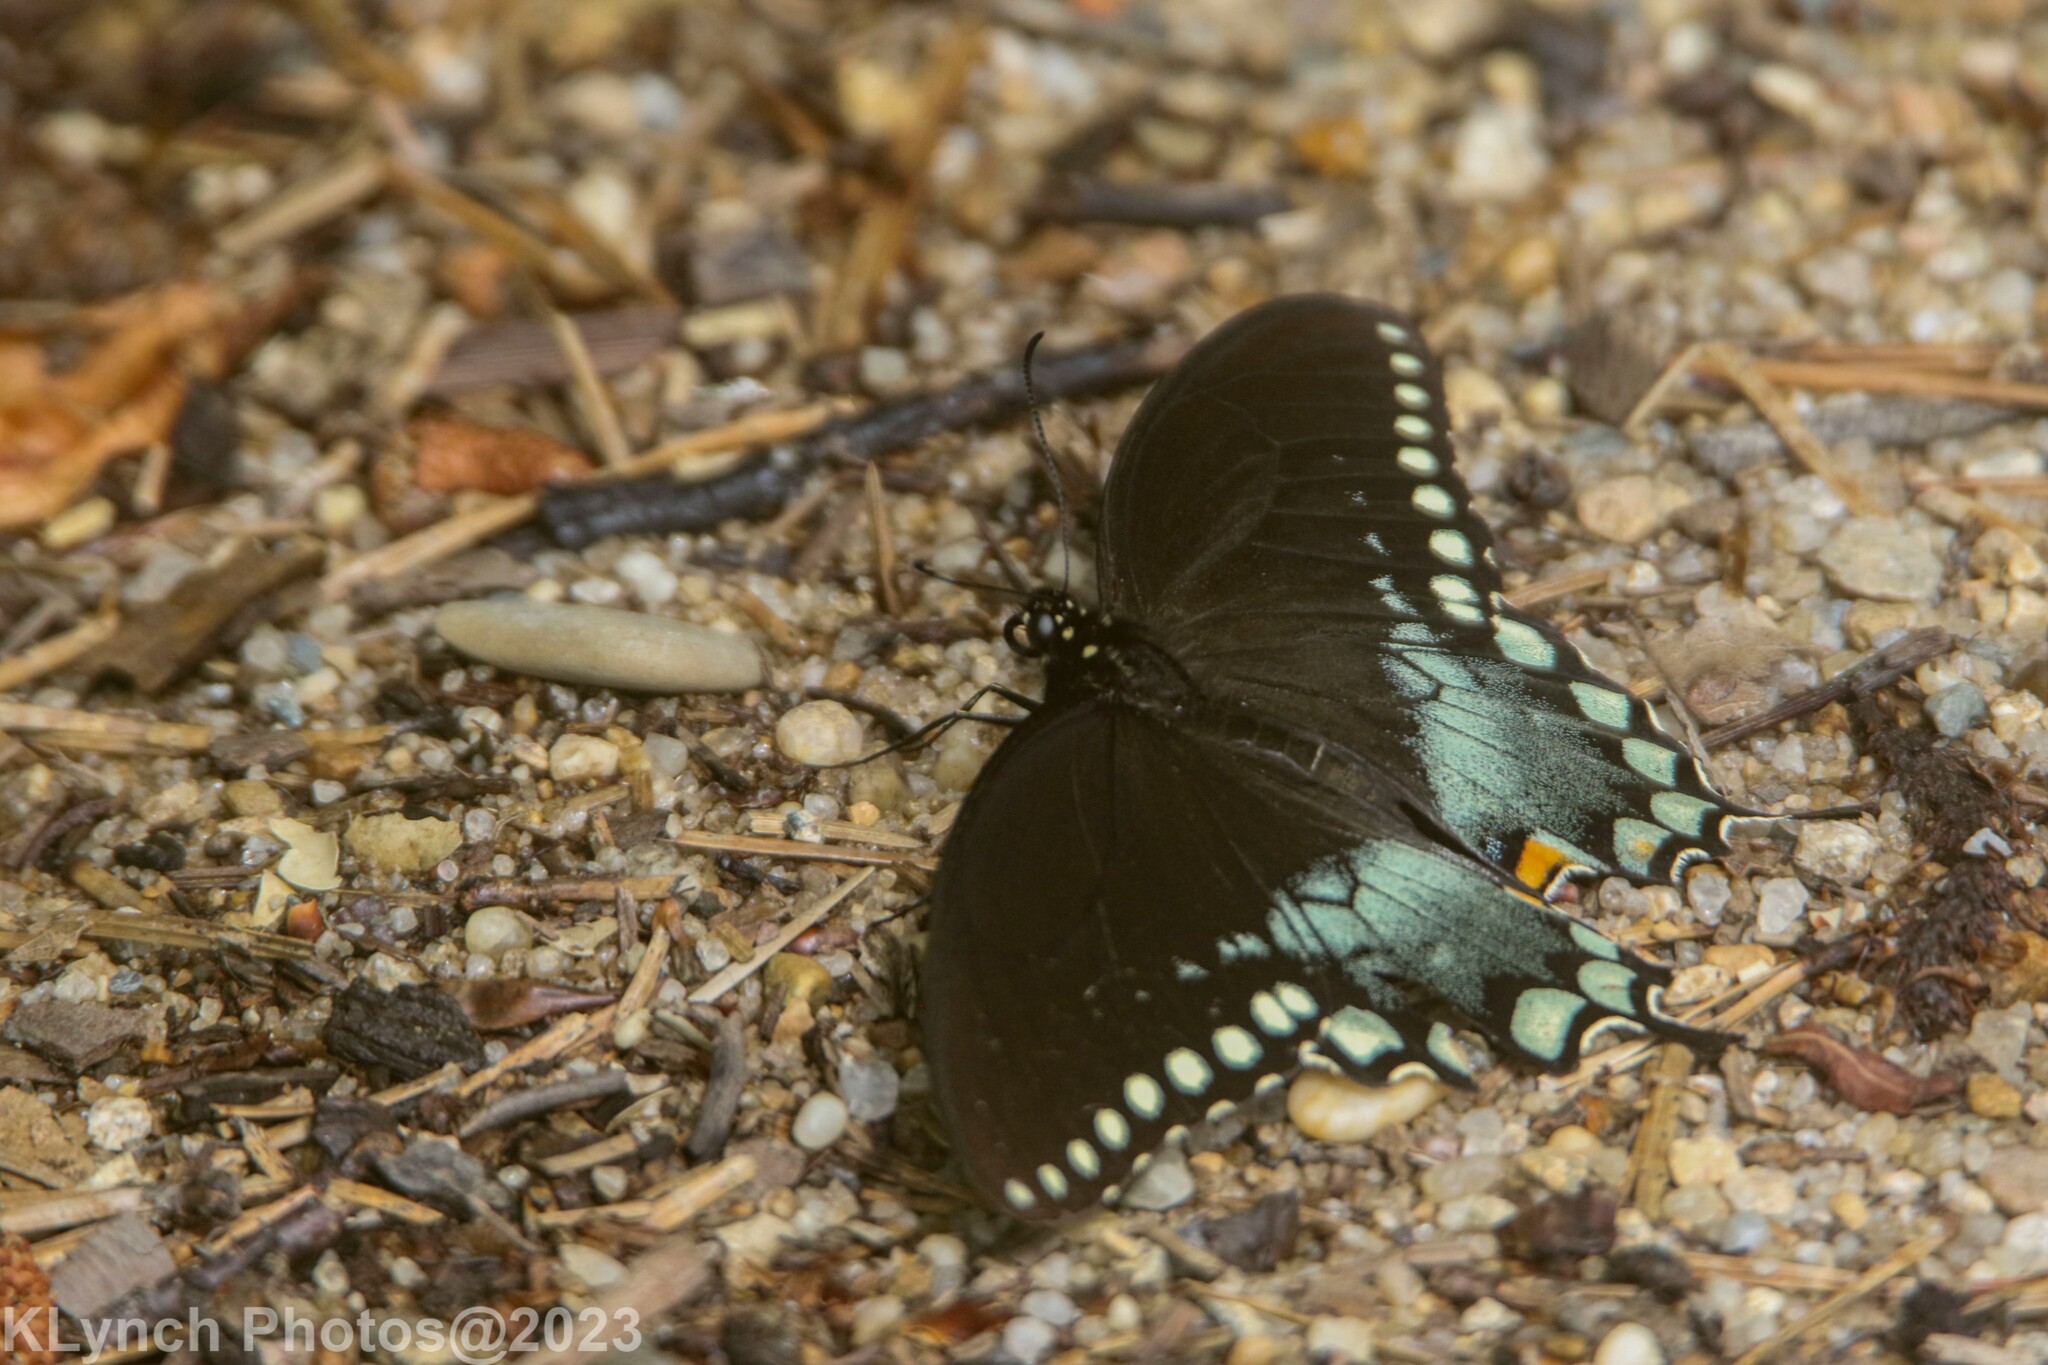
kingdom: Animalia
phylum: Arthropoda
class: Insecta
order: Lepidoptera
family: Papilionidae
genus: Papilio
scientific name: Papilio troilus
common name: Spicebush swallowtail
